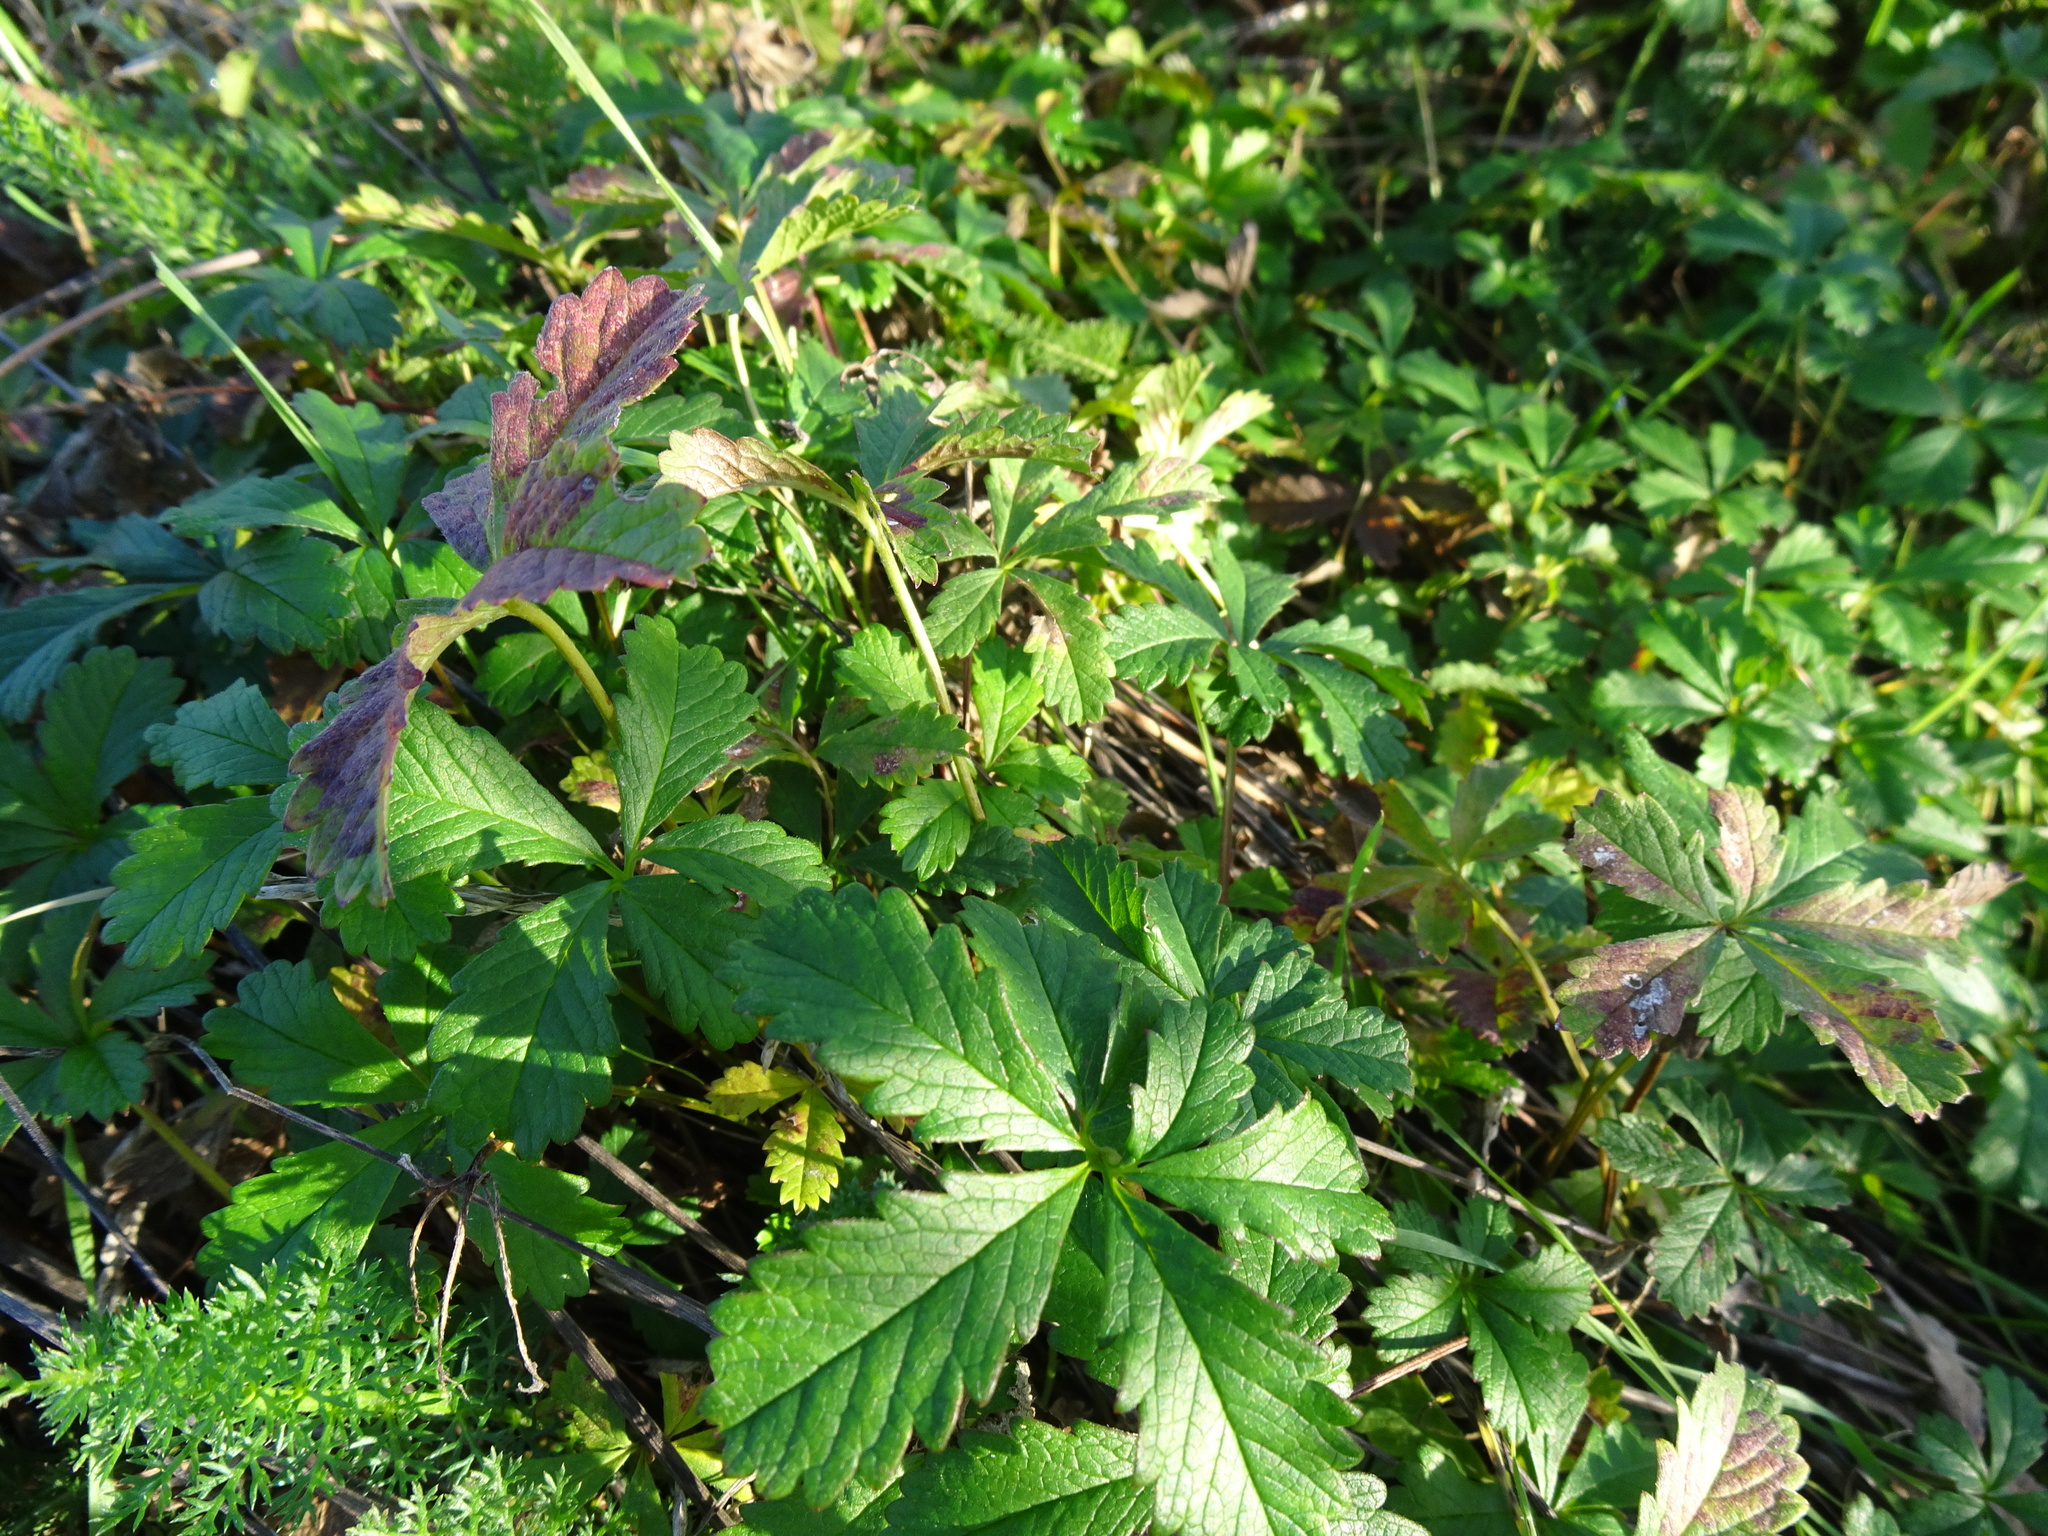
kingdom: Plantae
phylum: Tracheophyta
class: Magnoliopsida
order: Rosales
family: Rosaceae
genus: Potentilla
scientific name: Potentilla reptans
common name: Creeping cinquefoil
